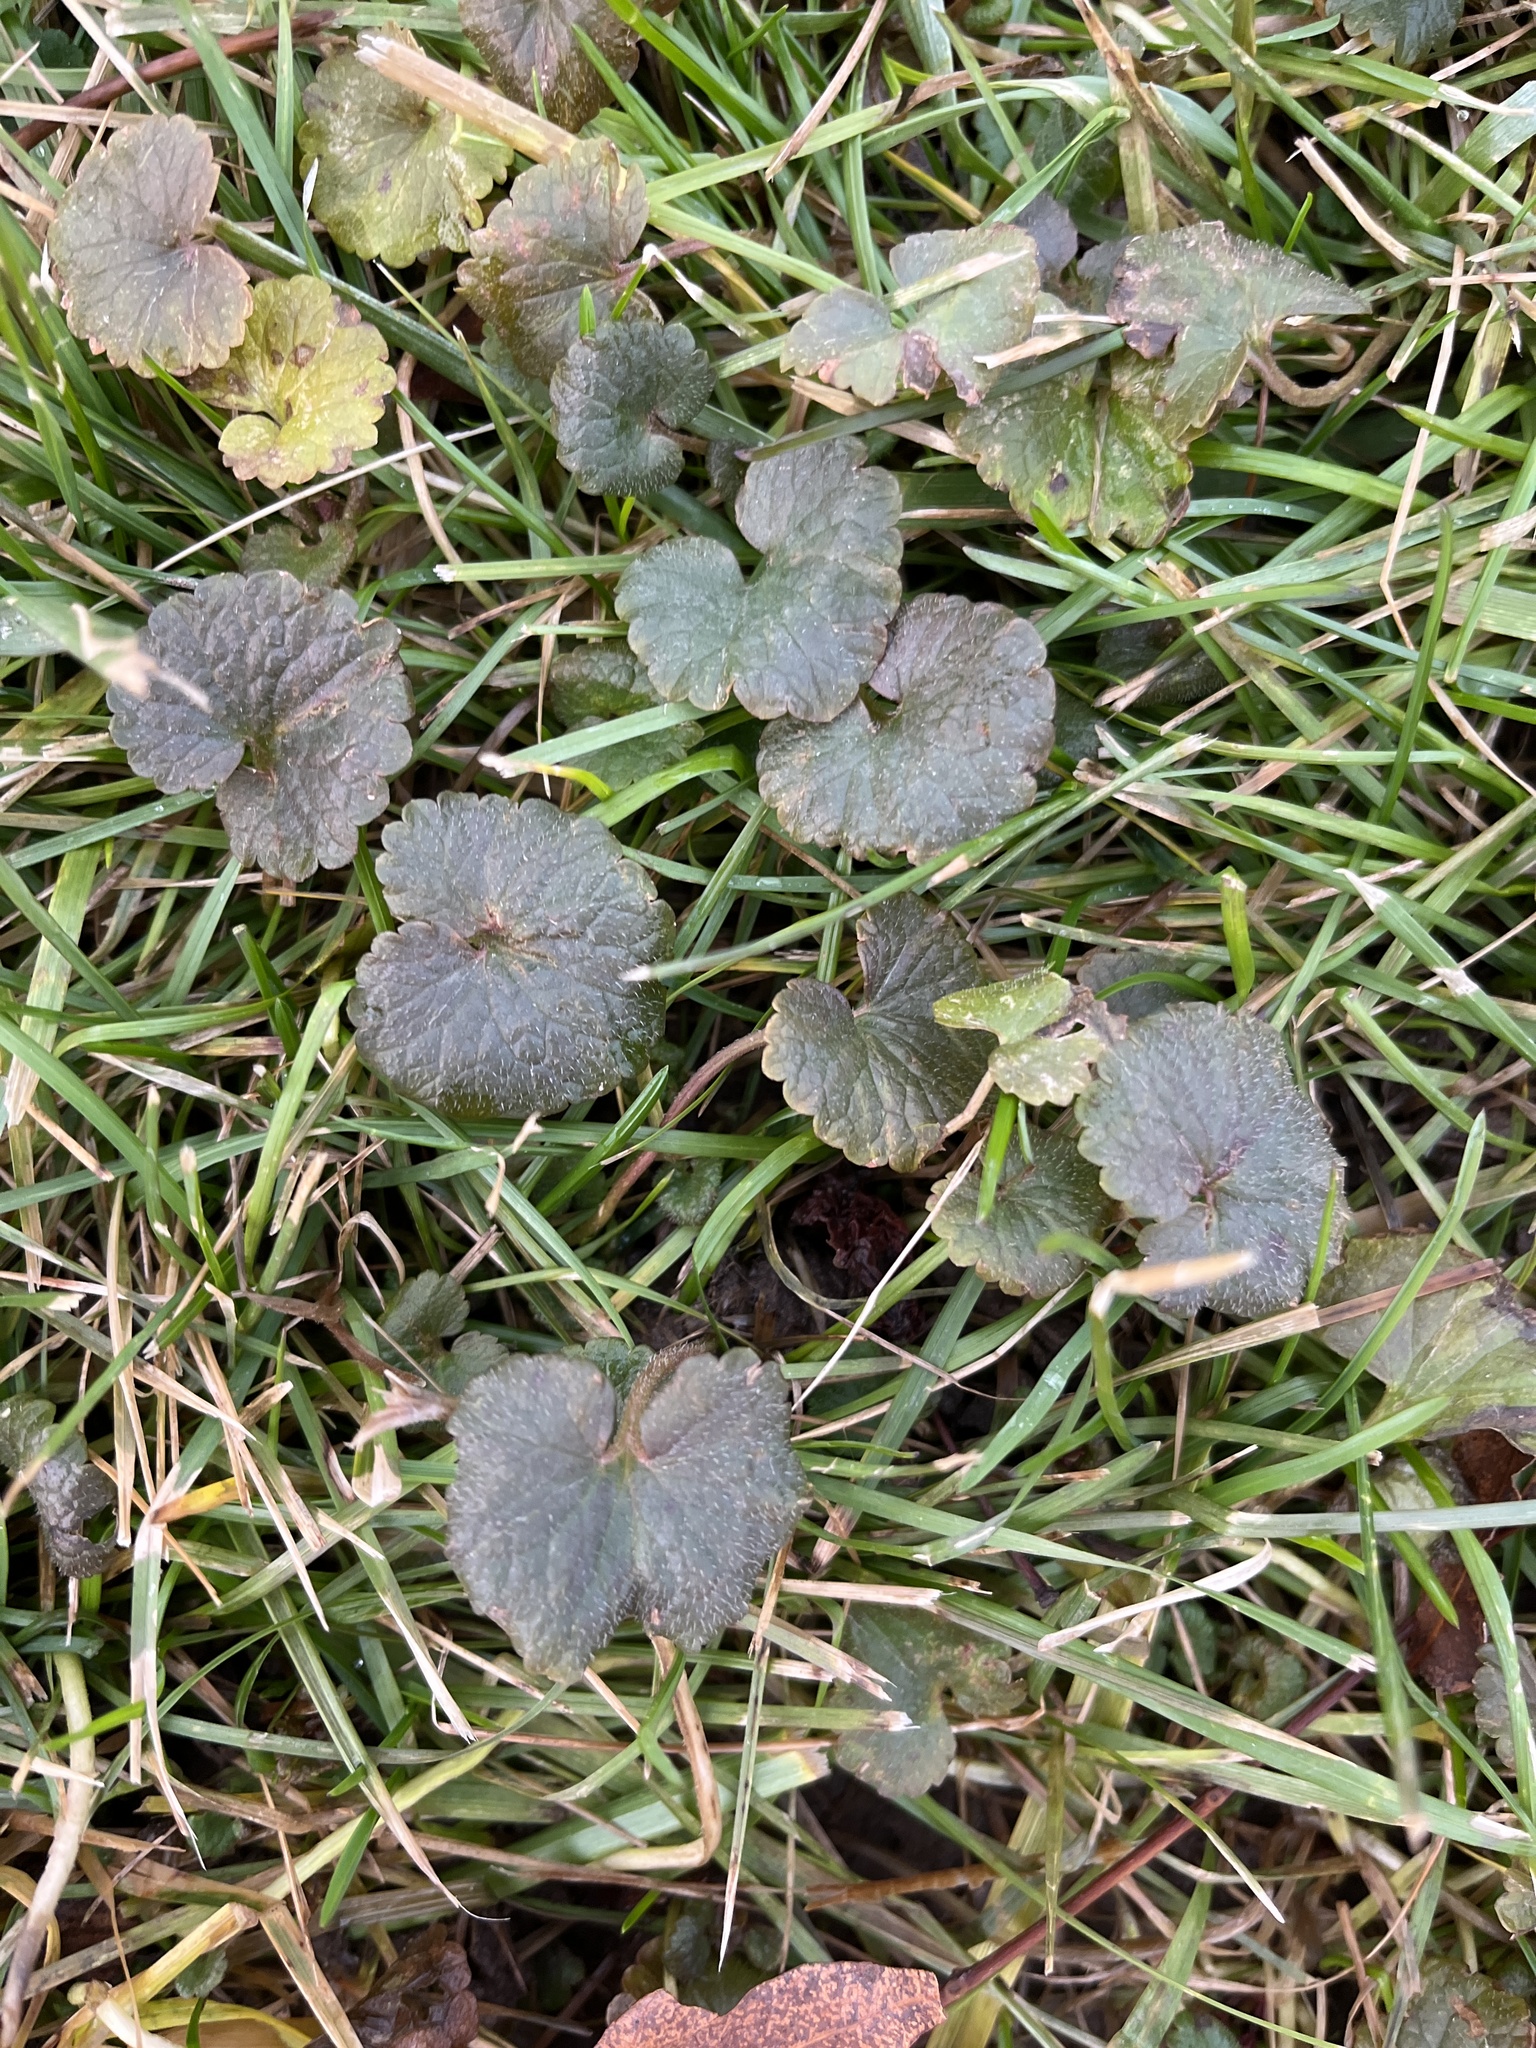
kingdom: Plantae
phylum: Tracheophyta
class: Magnoliopsida
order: Lamiales
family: Lamiaceae
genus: Glechoma
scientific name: Glechoma hederacea
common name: Ground ivy
